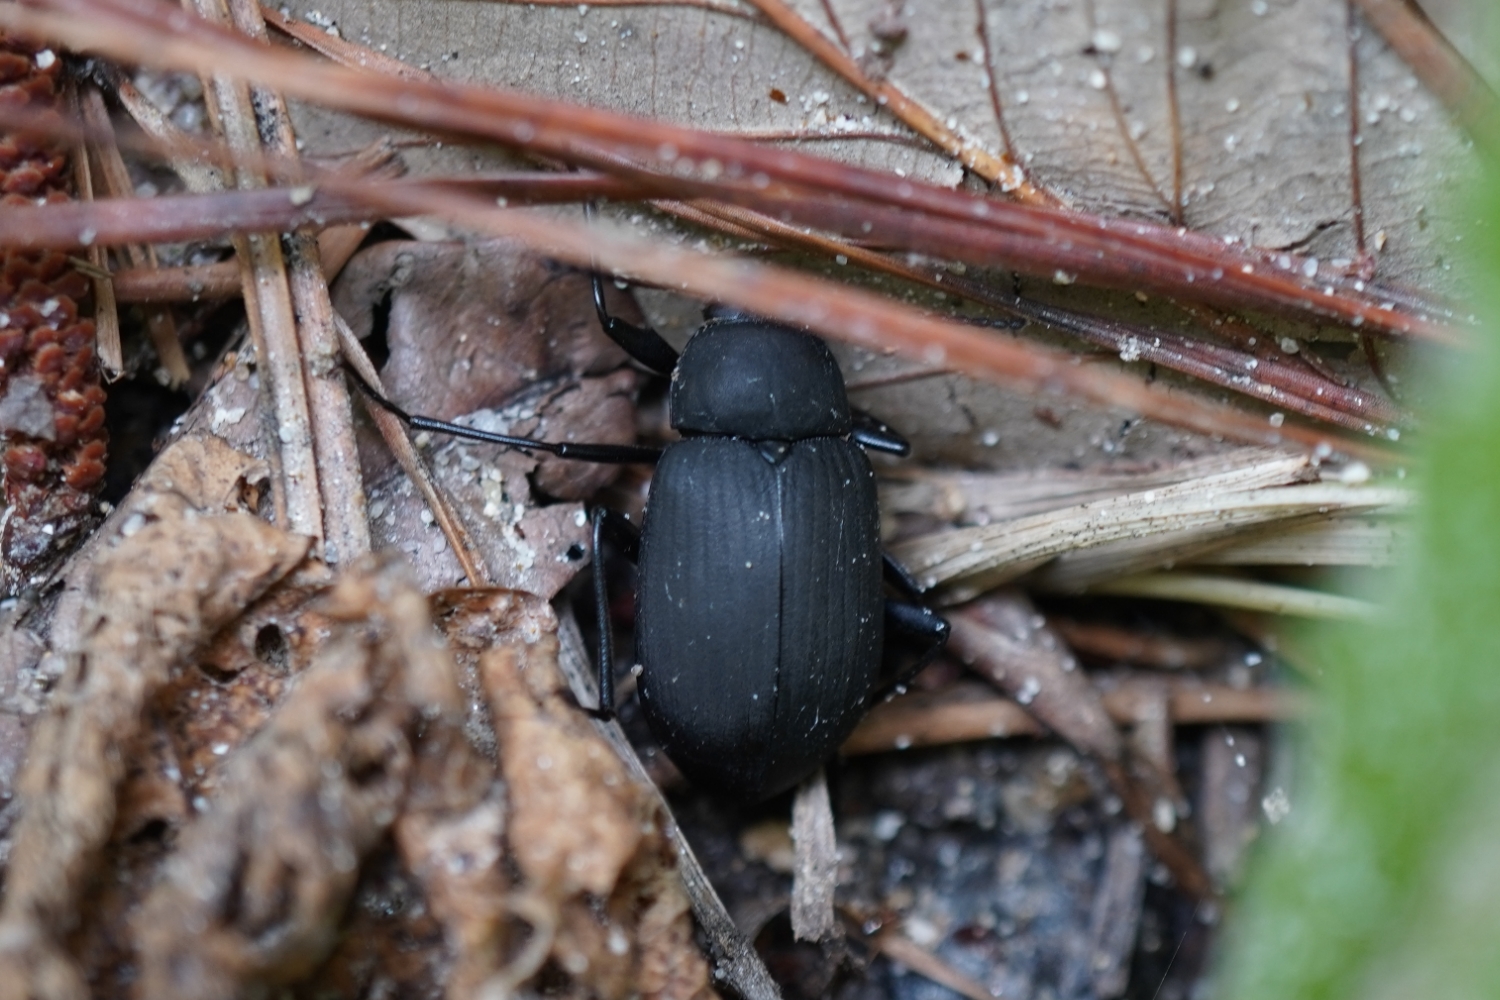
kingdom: Animalia
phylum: Arthropoda
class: Insecta
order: Coleoptera
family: Tenebrionidae
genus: Plesiophthalmus
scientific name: Plesiophthalmus
